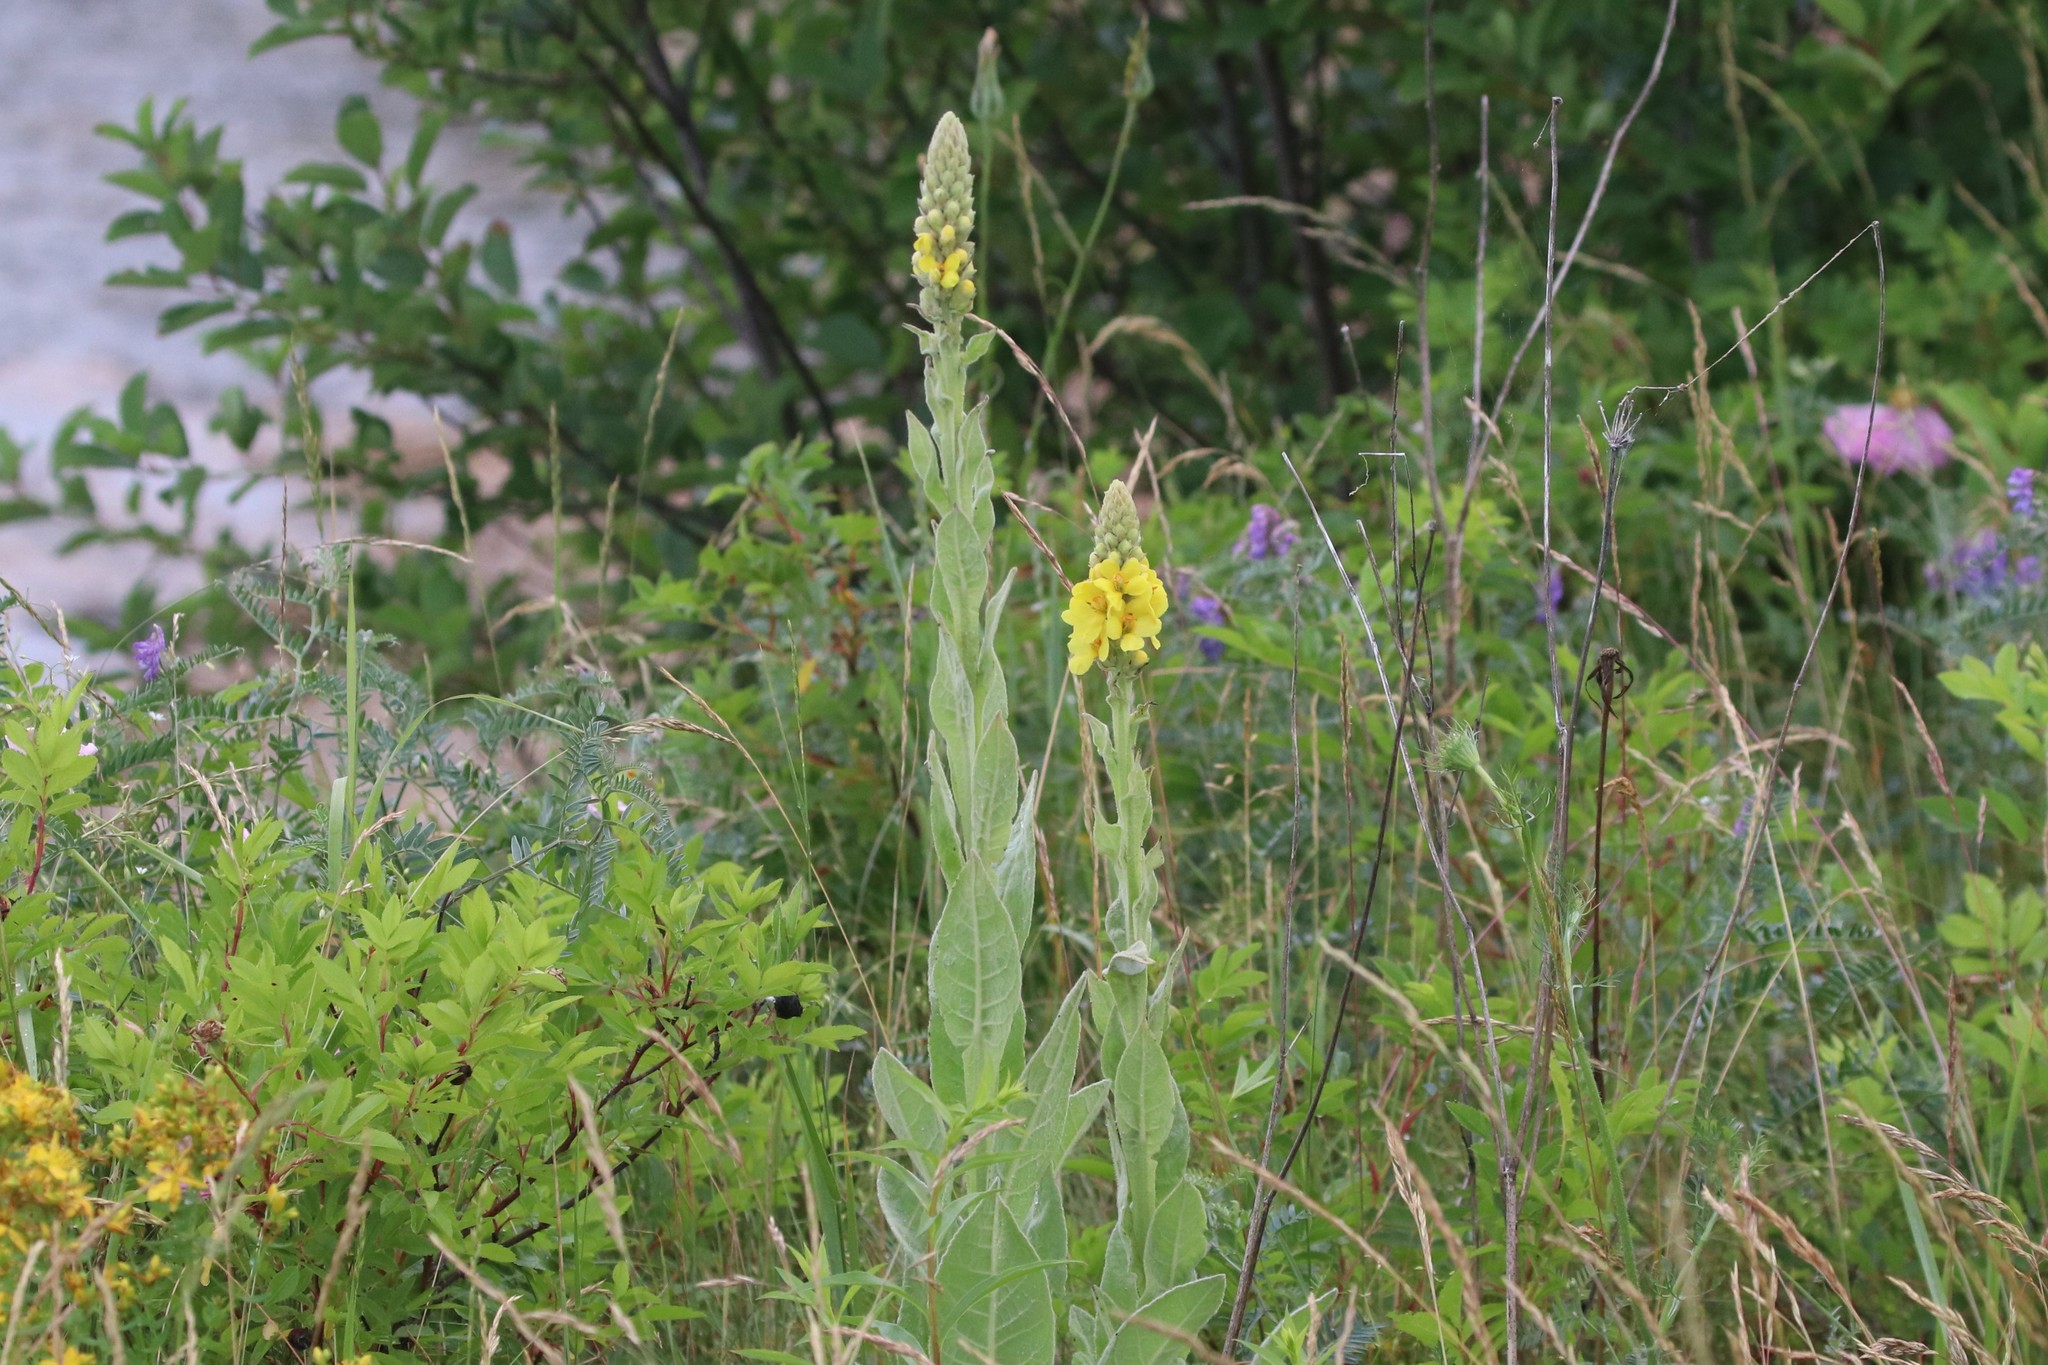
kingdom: Plantae
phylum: Tracheophyta
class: Magnoliopsida
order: Lamiales
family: Scrophulariaceae
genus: Verbascum
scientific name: Verbascum thapsus
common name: Common mullein
